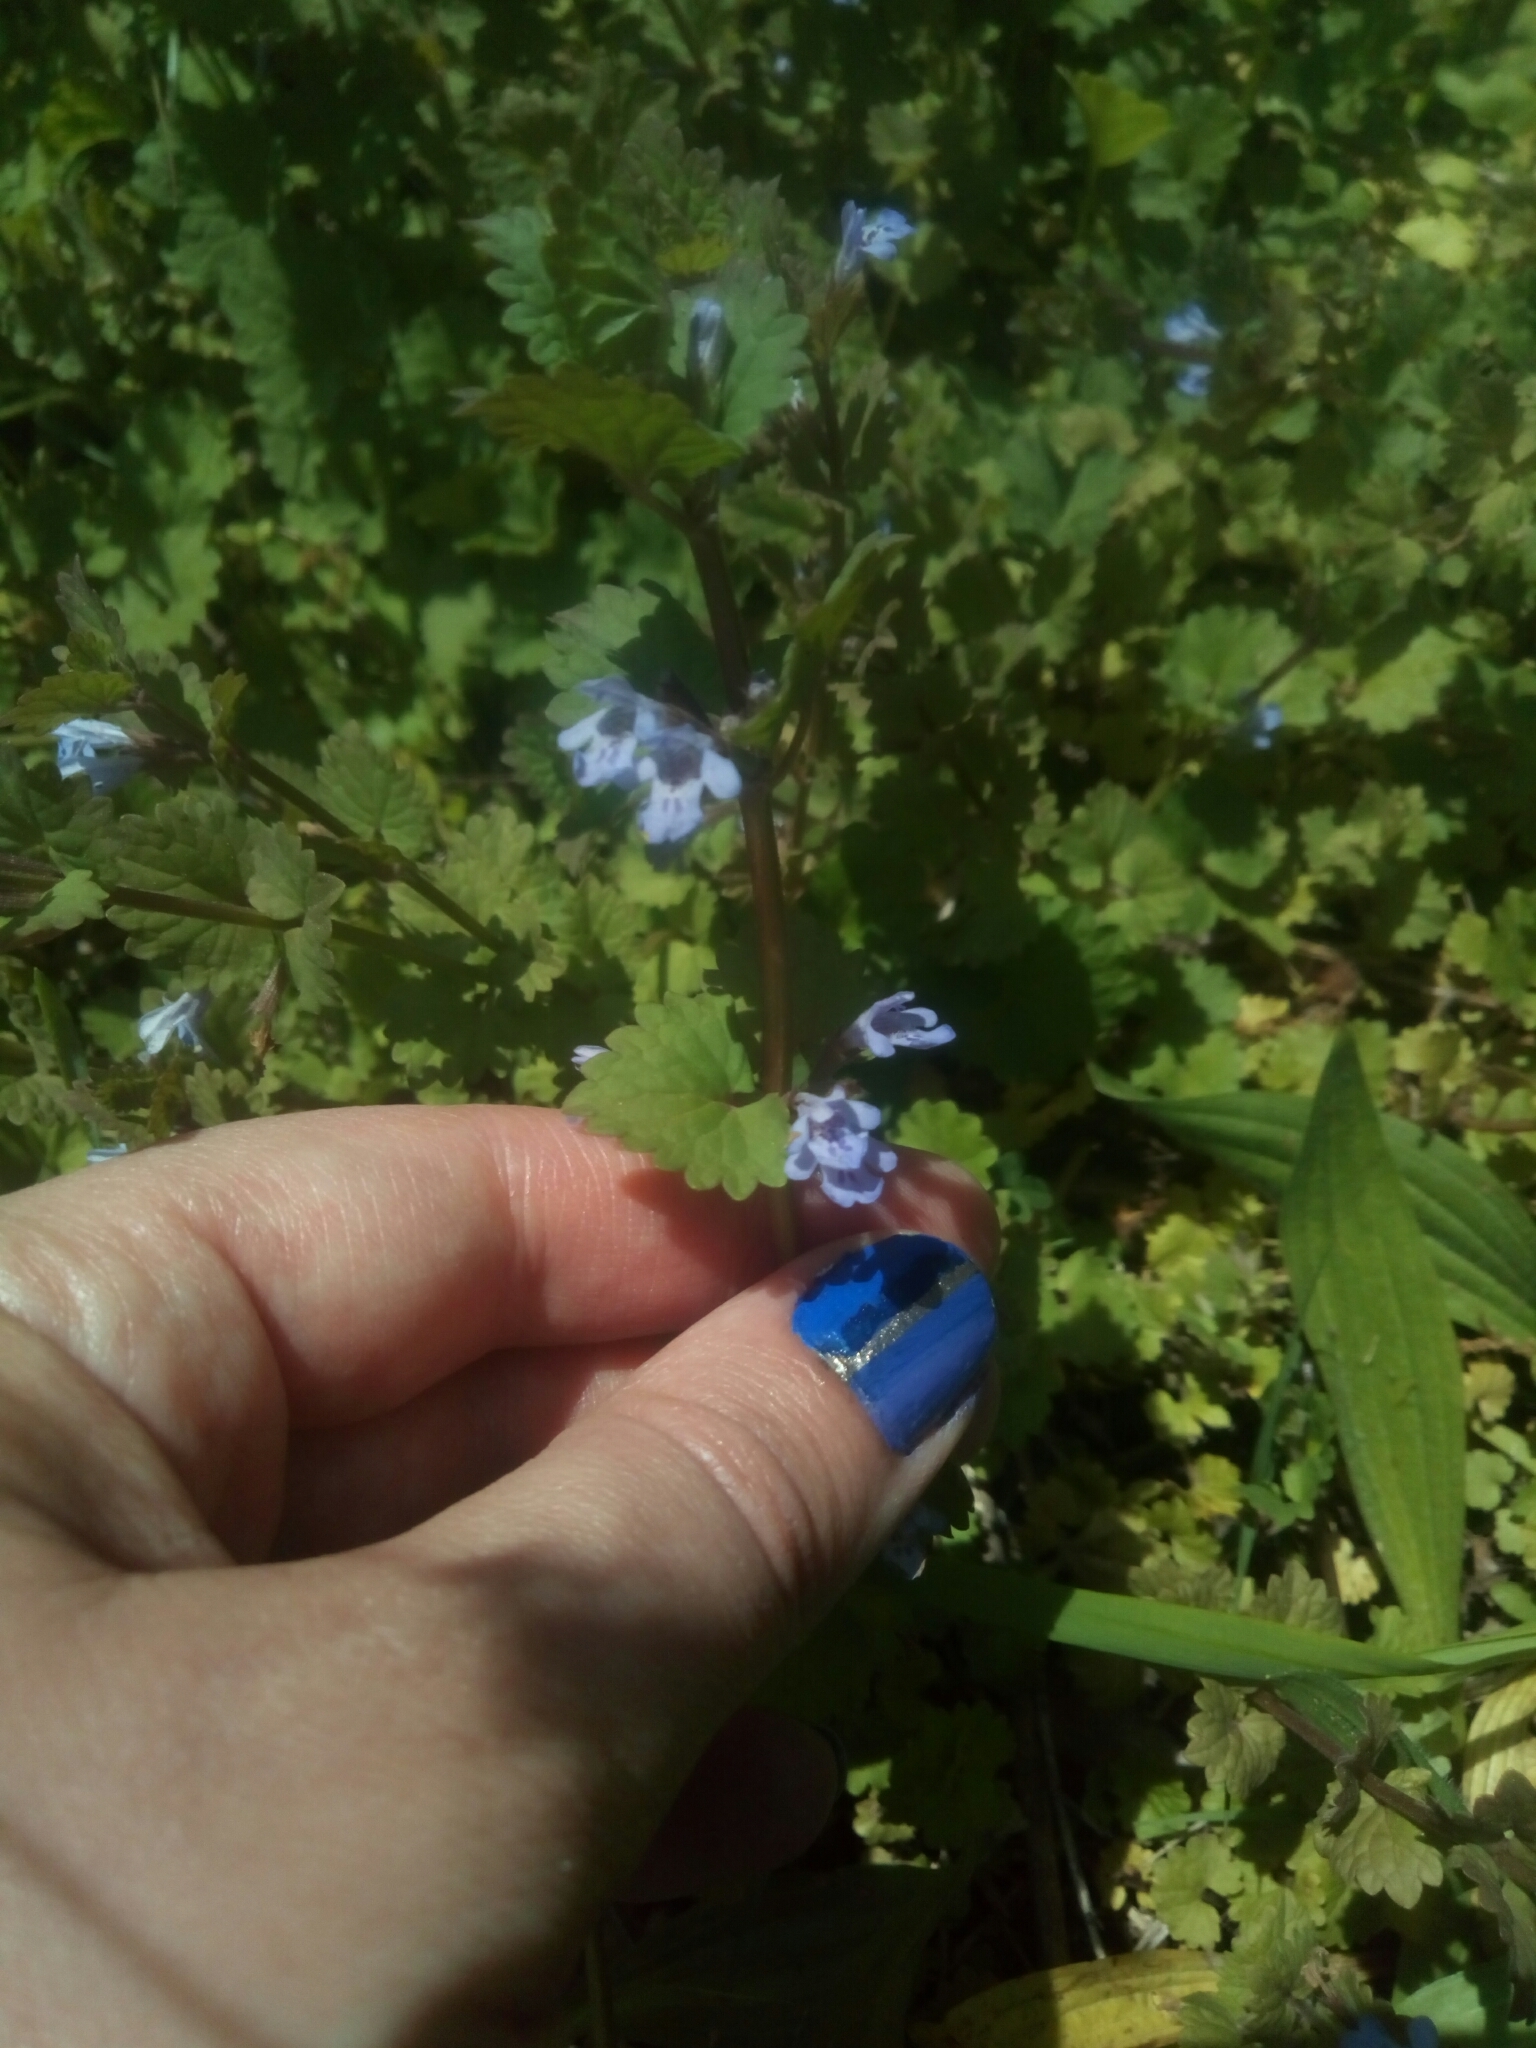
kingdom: Plantae
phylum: Tracheophyta
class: Magnoliopsida
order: Lamiales
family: Lamiaceae
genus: Glechoma
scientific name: Glechoma hederacea
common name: Ground ivy
